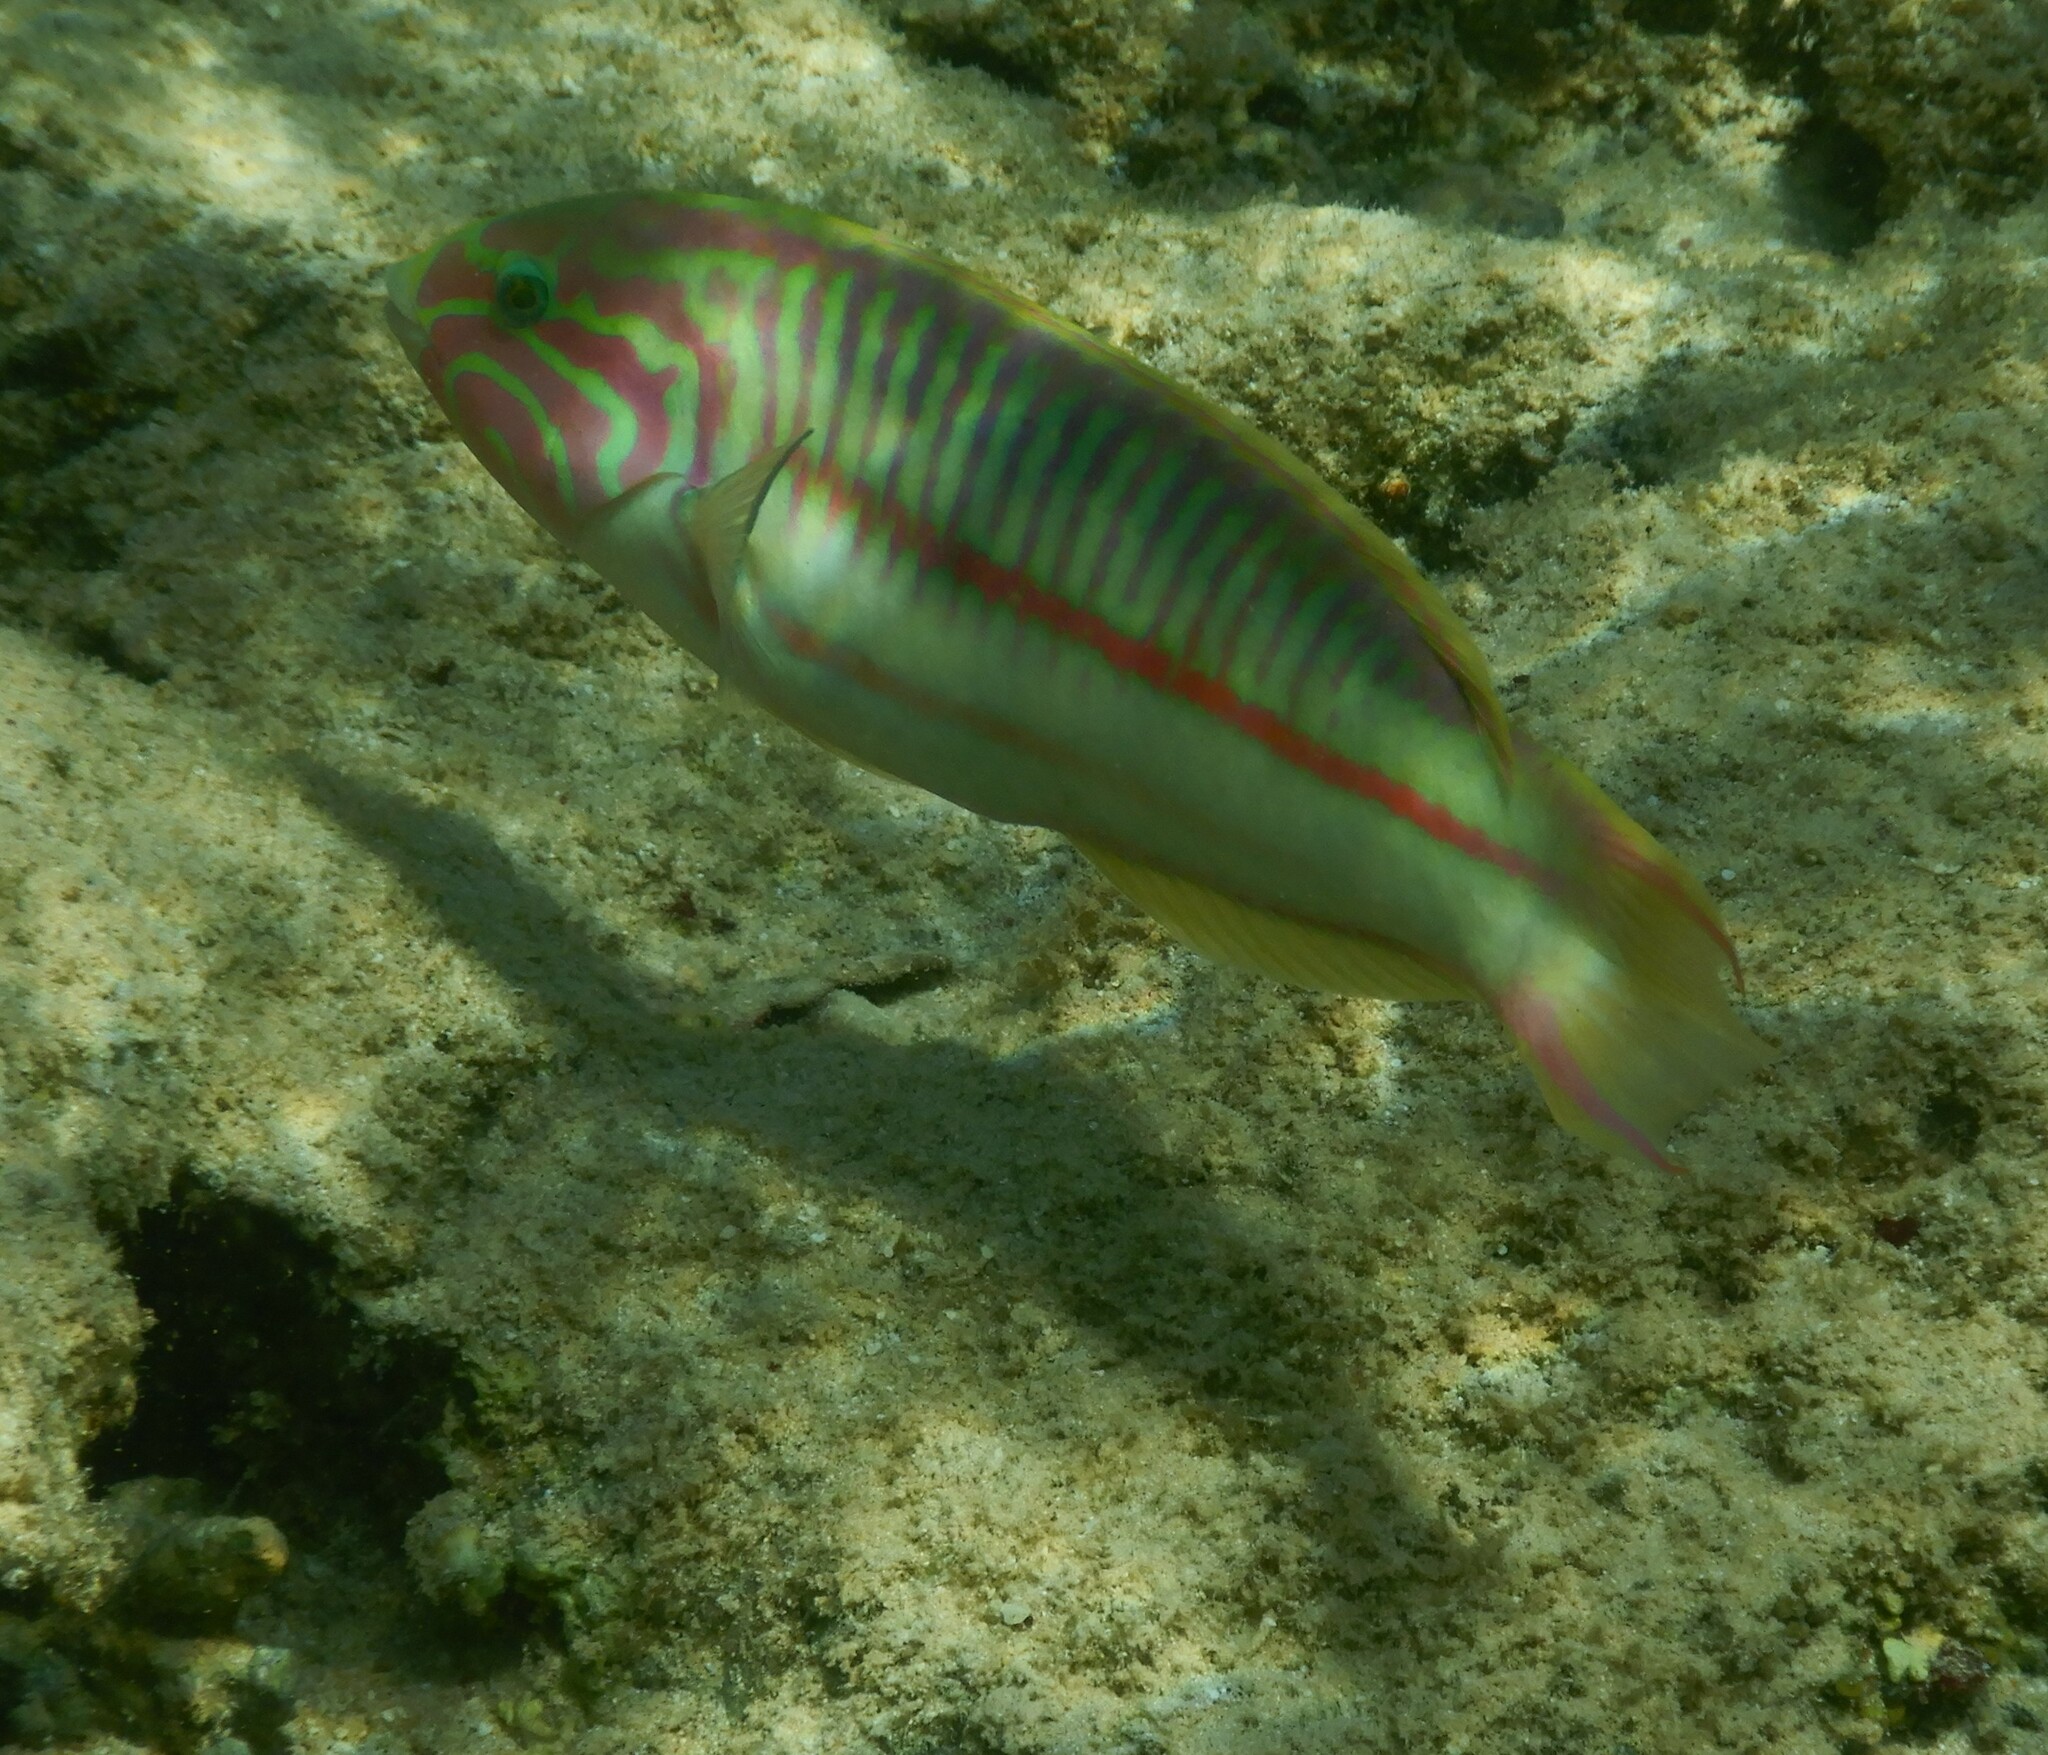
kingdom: Animalia
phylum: Chordata
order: Perciformes
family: Labridae
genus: Thalassoma
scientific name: Thalassoma rueppellii
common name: Klunzinger's wrasse
